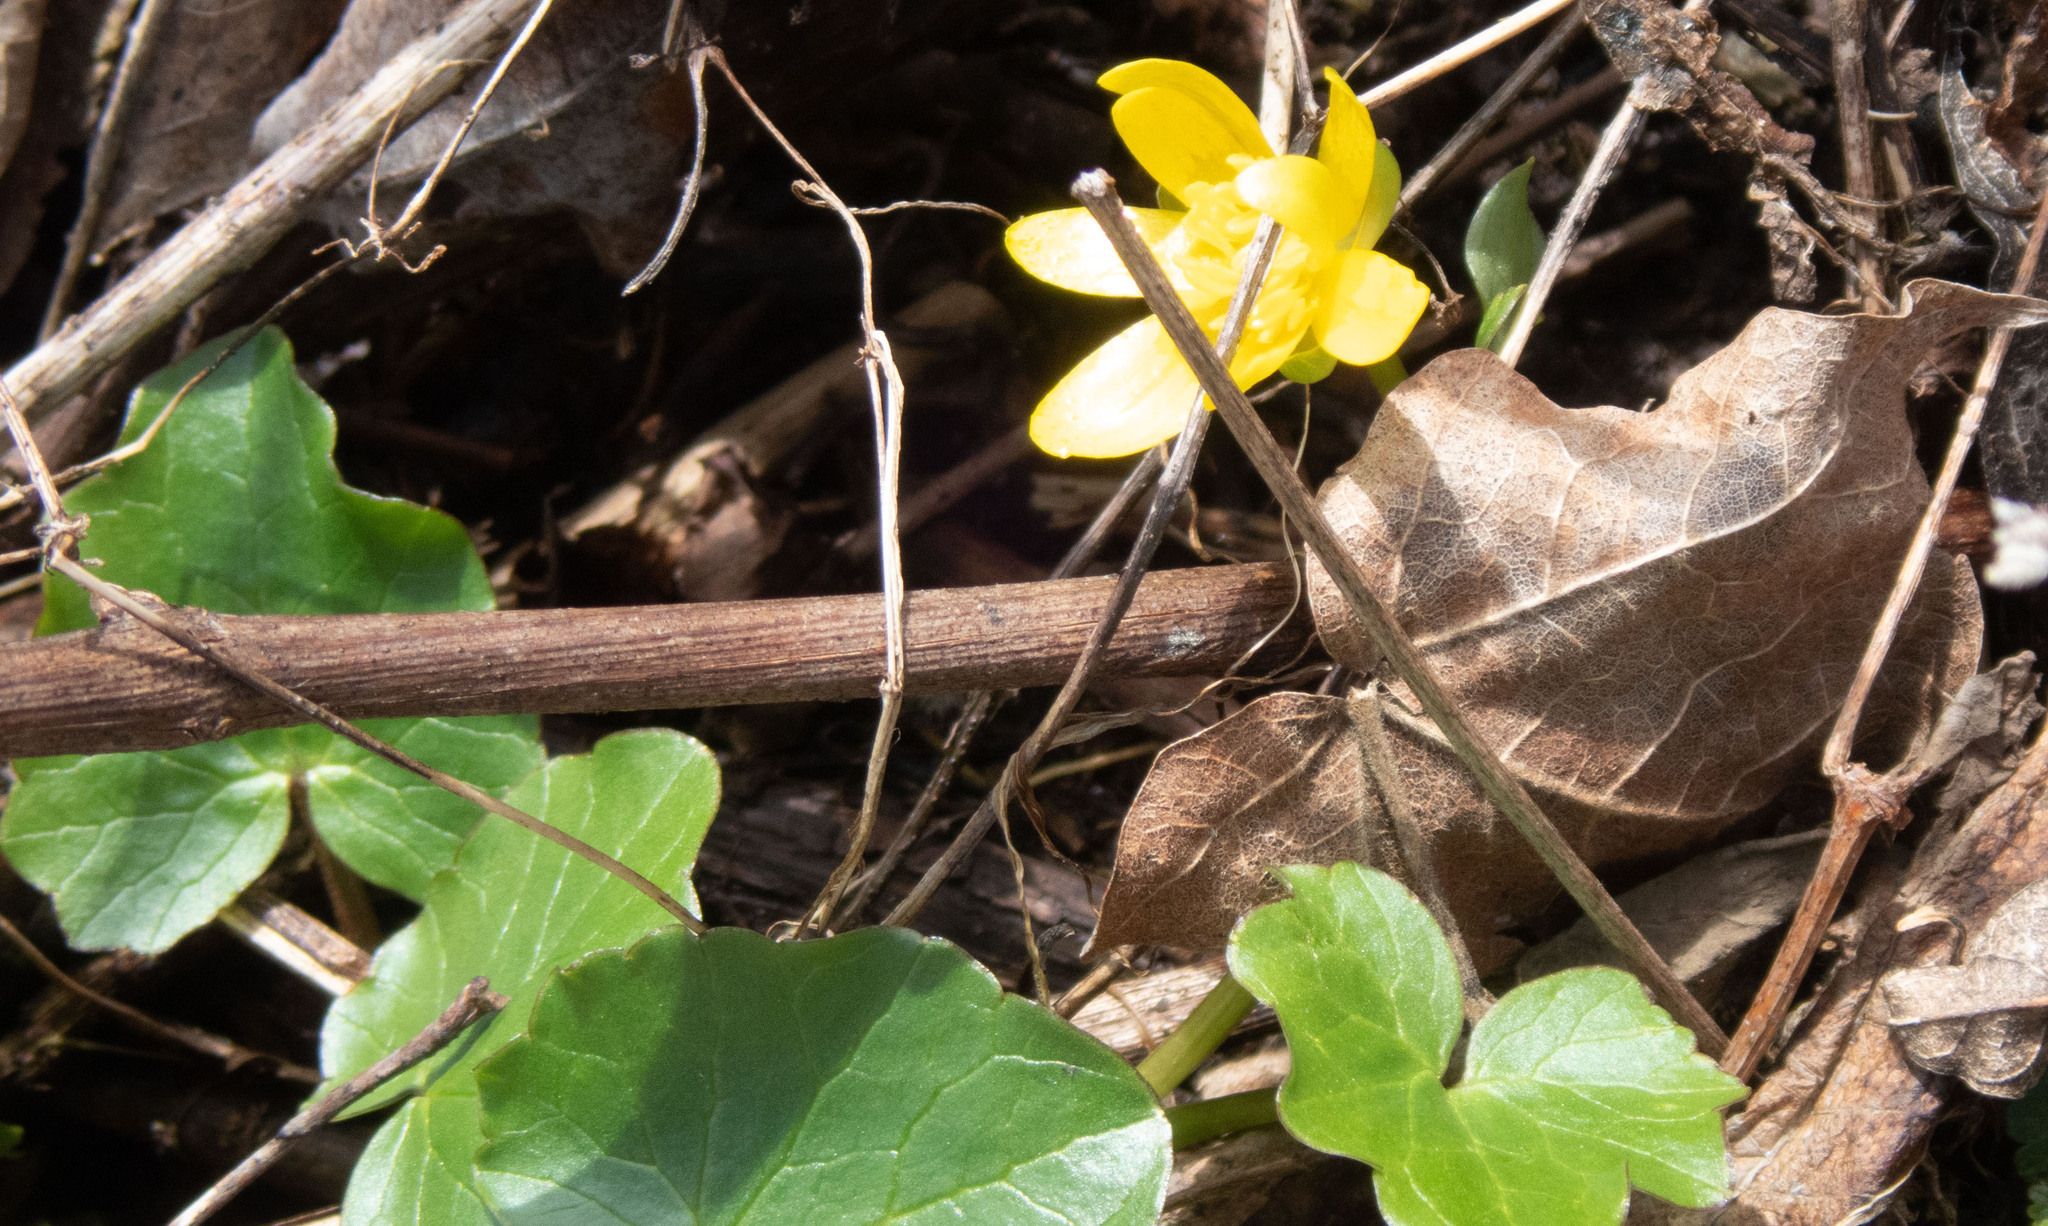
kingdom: Plantae
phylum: Tracheophyta
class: Magnoliopsida
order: Ranunculales
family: Ranunculaceae
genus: Ficaria
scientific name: Ficaria verna
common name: Lesser celandine
